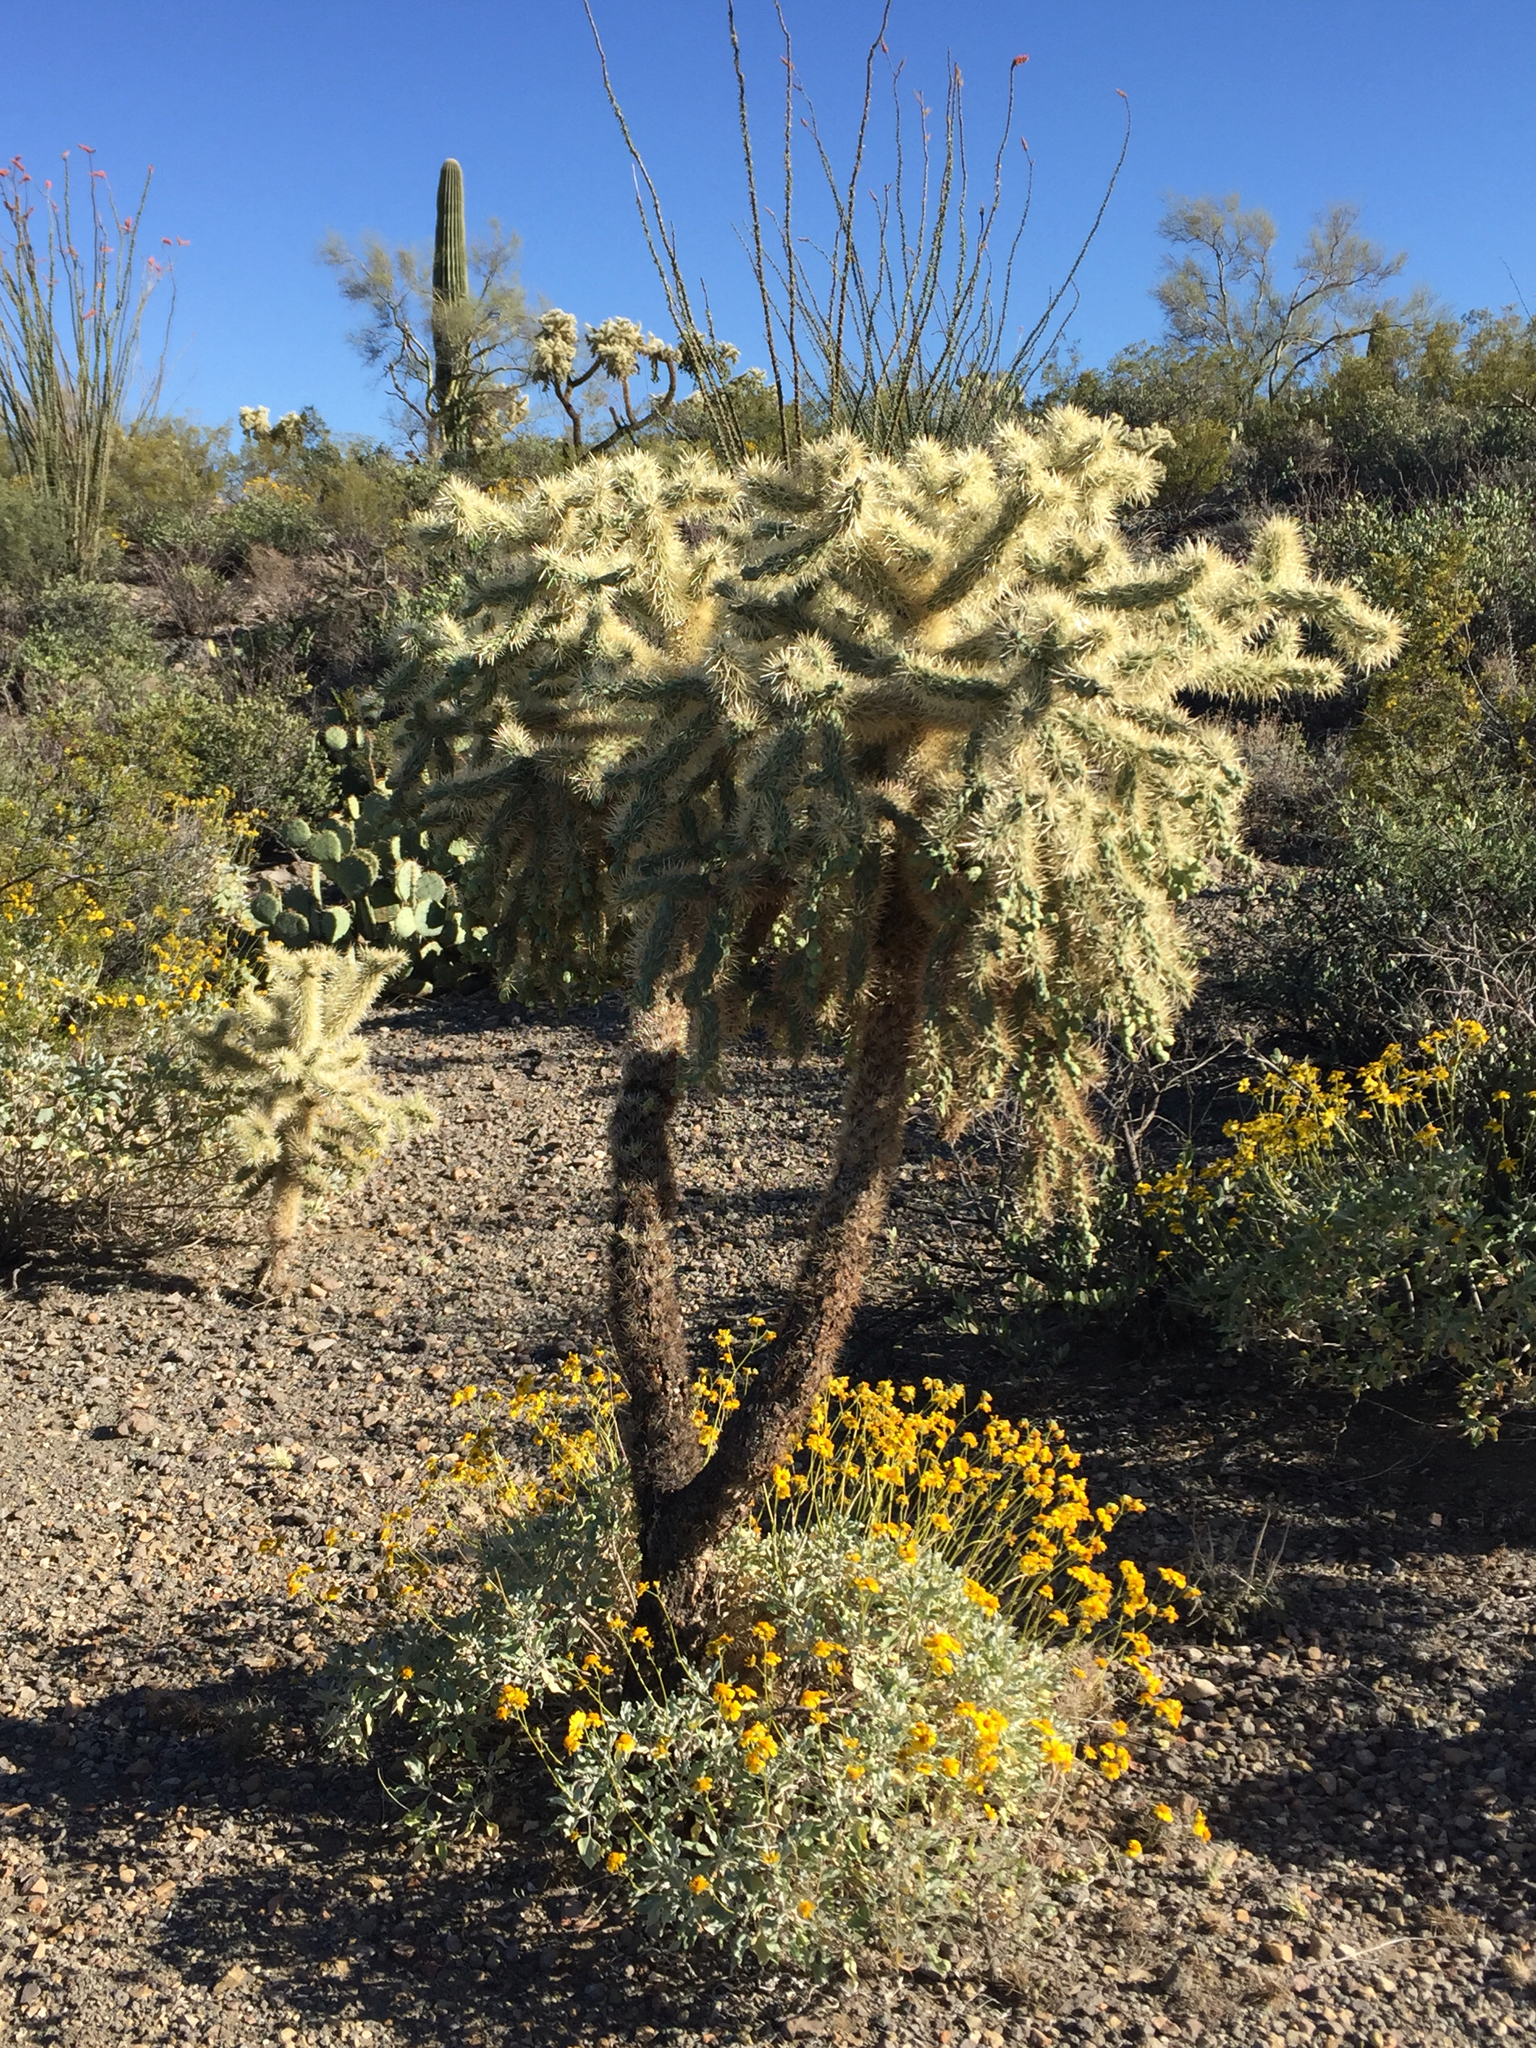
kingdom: Plantae
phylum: Tracheophyta
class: Magnoliopsida
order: Caryophyllales
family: Cactaceae
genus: Cylindropuntia
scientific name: Cylindropuntia fulgida
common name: Jumping cholla
